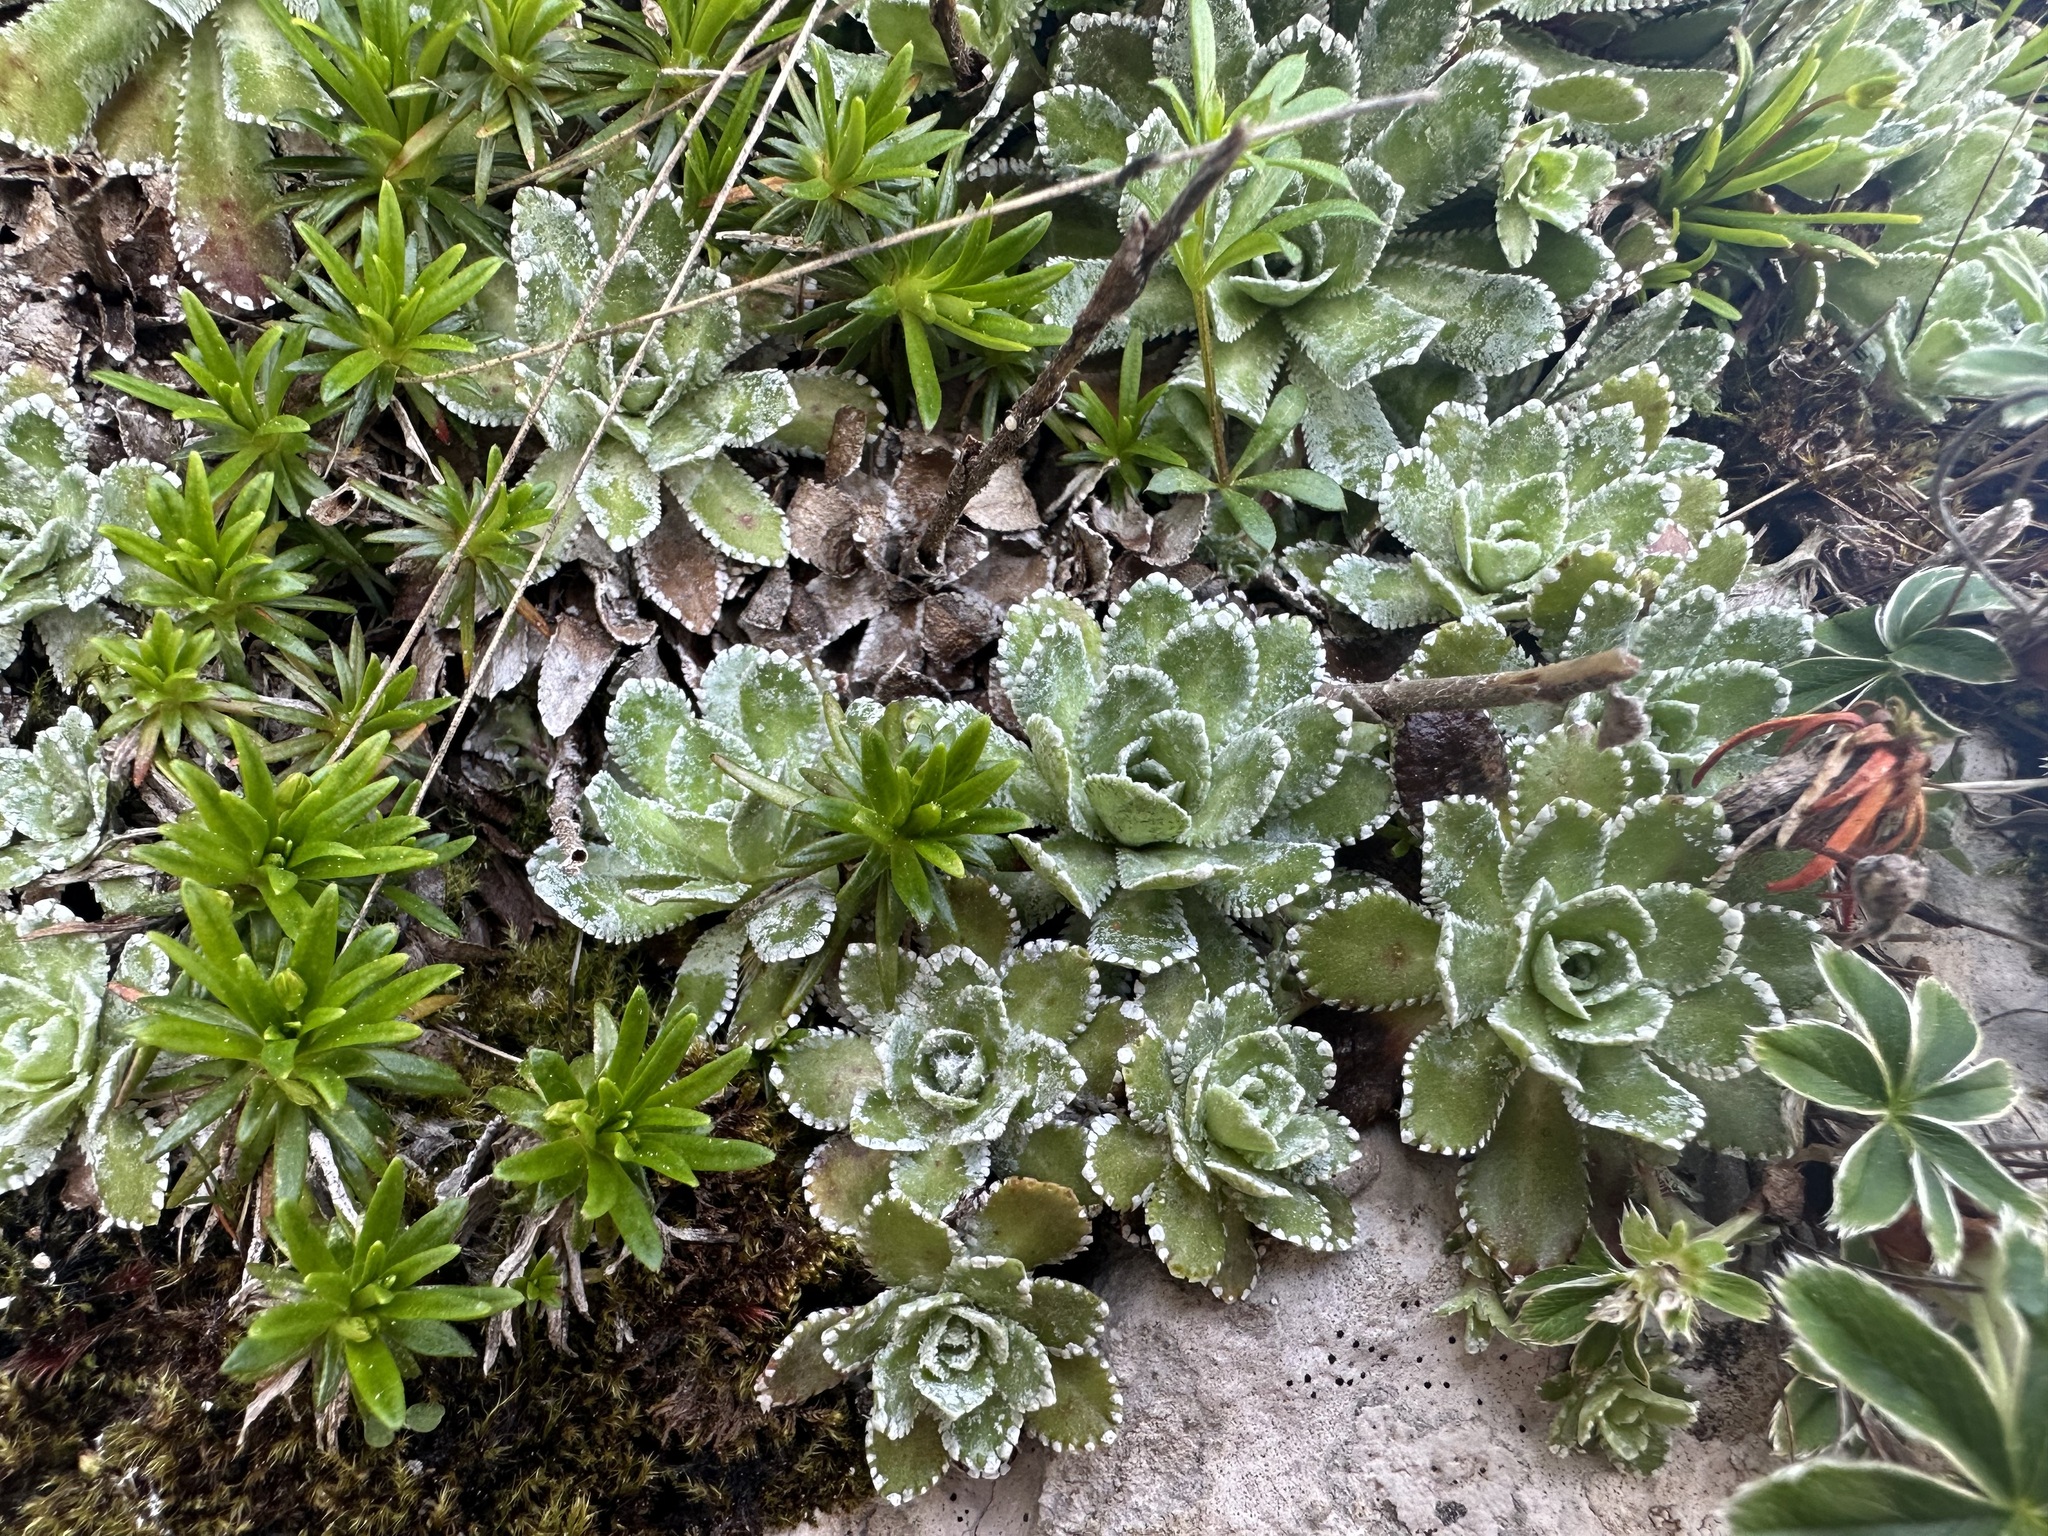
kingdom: Plantae
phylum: Tracheophyta
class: Magnoliopsida
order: Saxifragales
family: Saxifragaceae
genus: Saxifraga
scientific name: Saxifraga paniculata
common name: Livelong saxifrage
